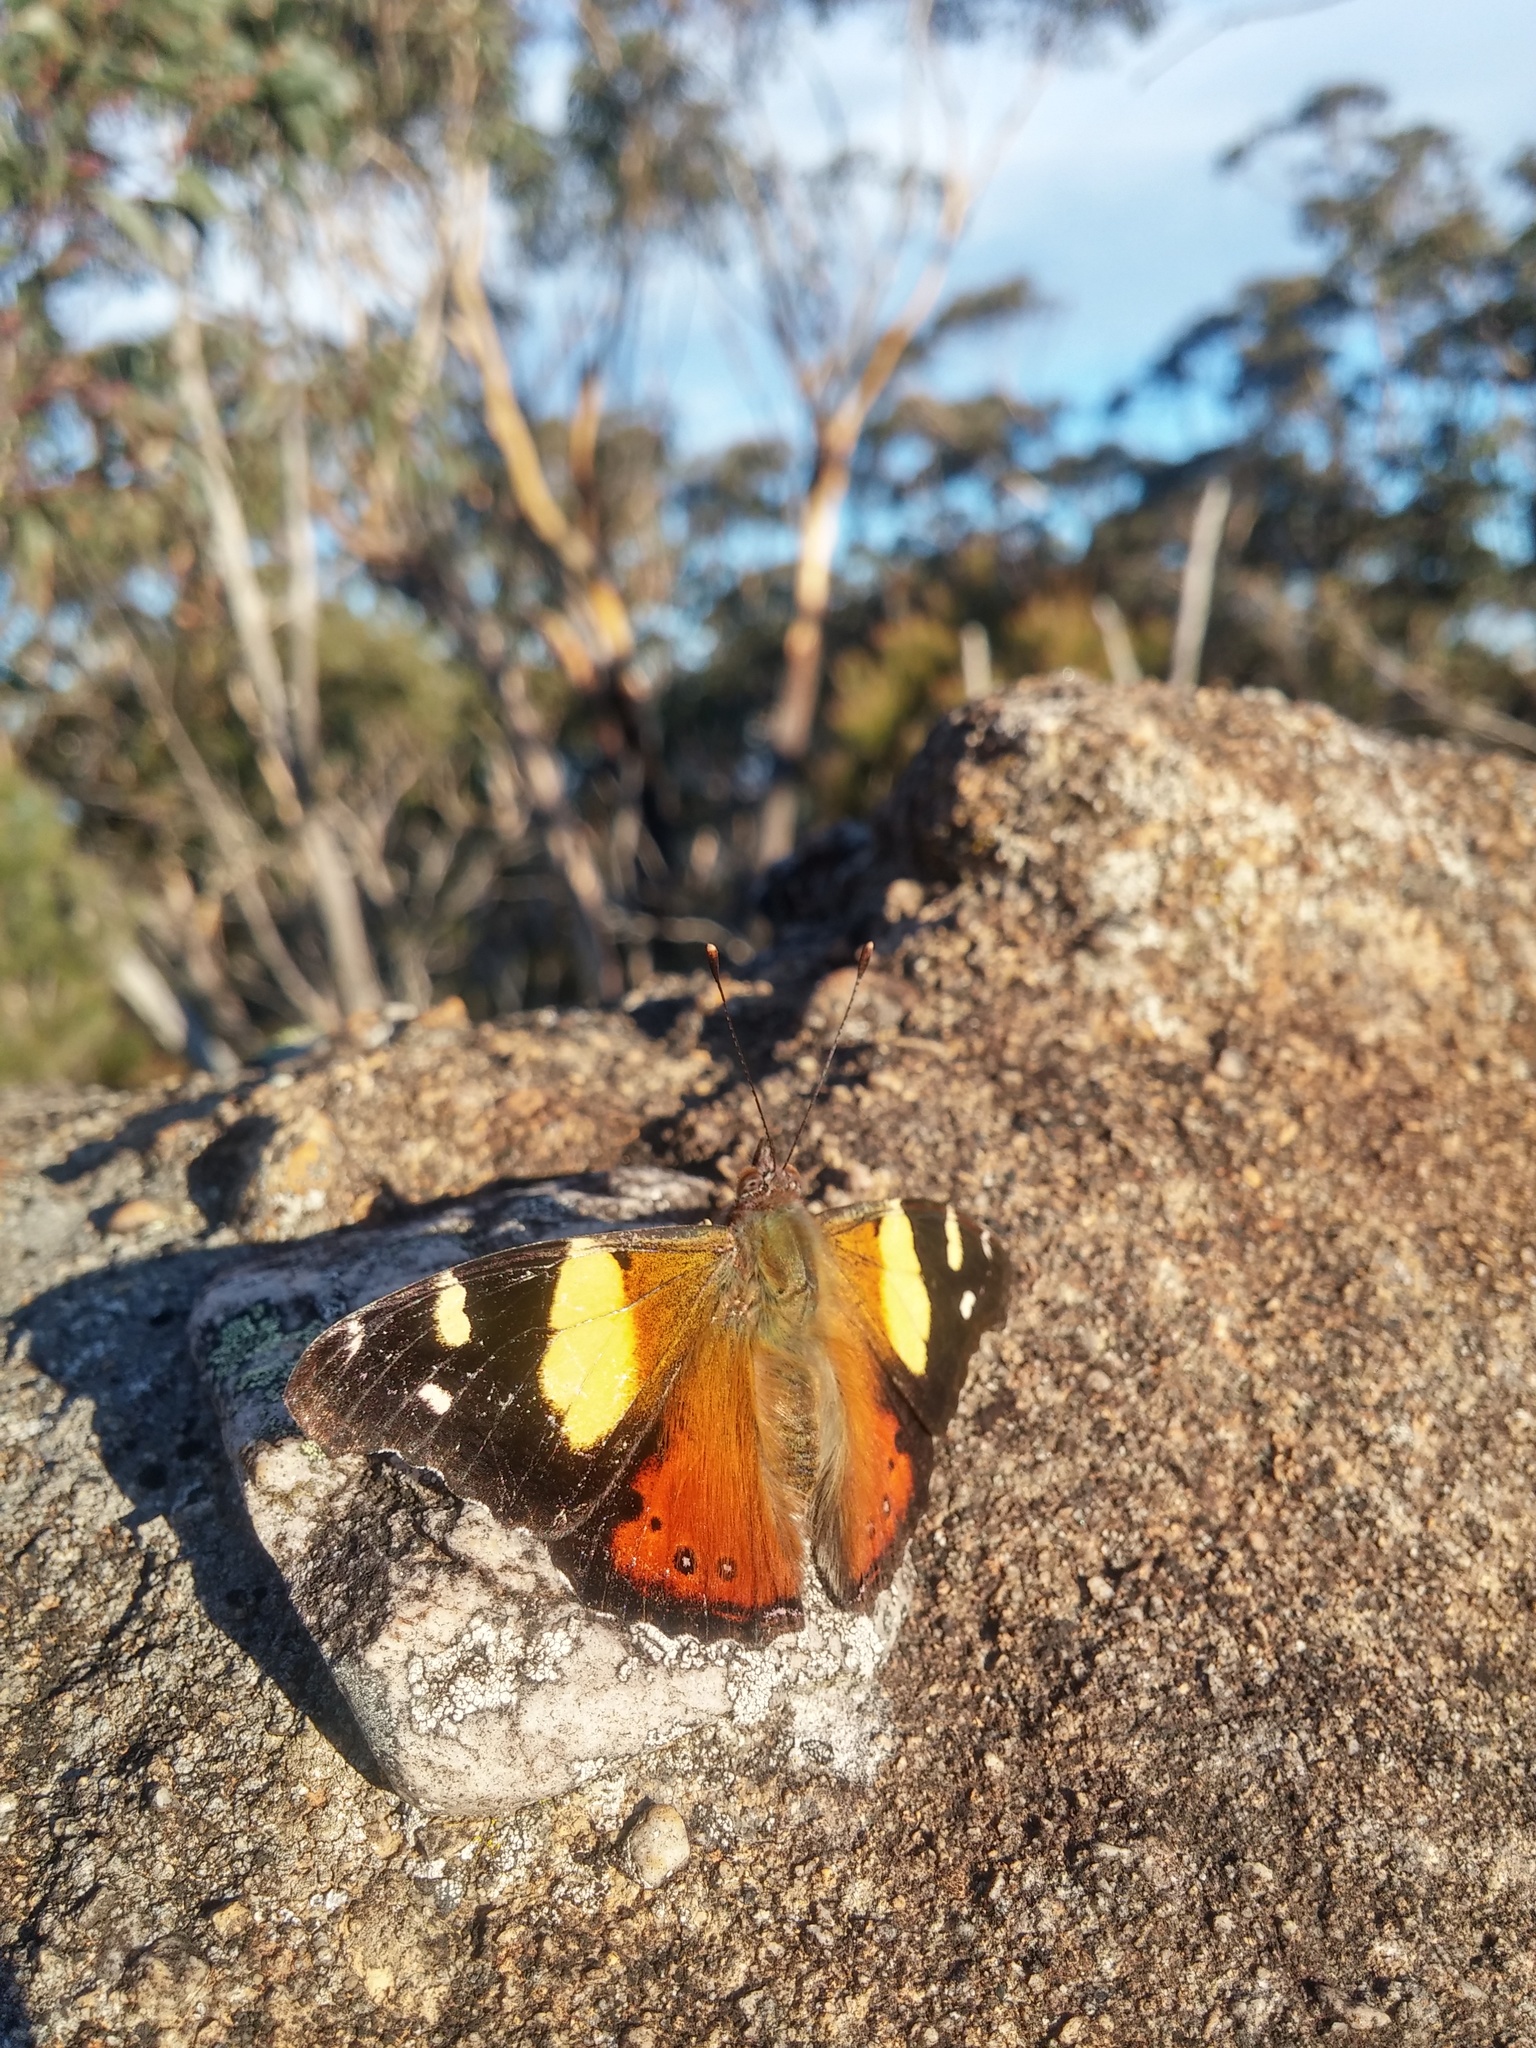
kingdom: Animalia
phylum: Arthropoda
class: Insecta
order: Lepidoptera
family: Nymphalidae
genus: Vanessa
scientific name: Vanessa itea
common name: Yellow admiral
